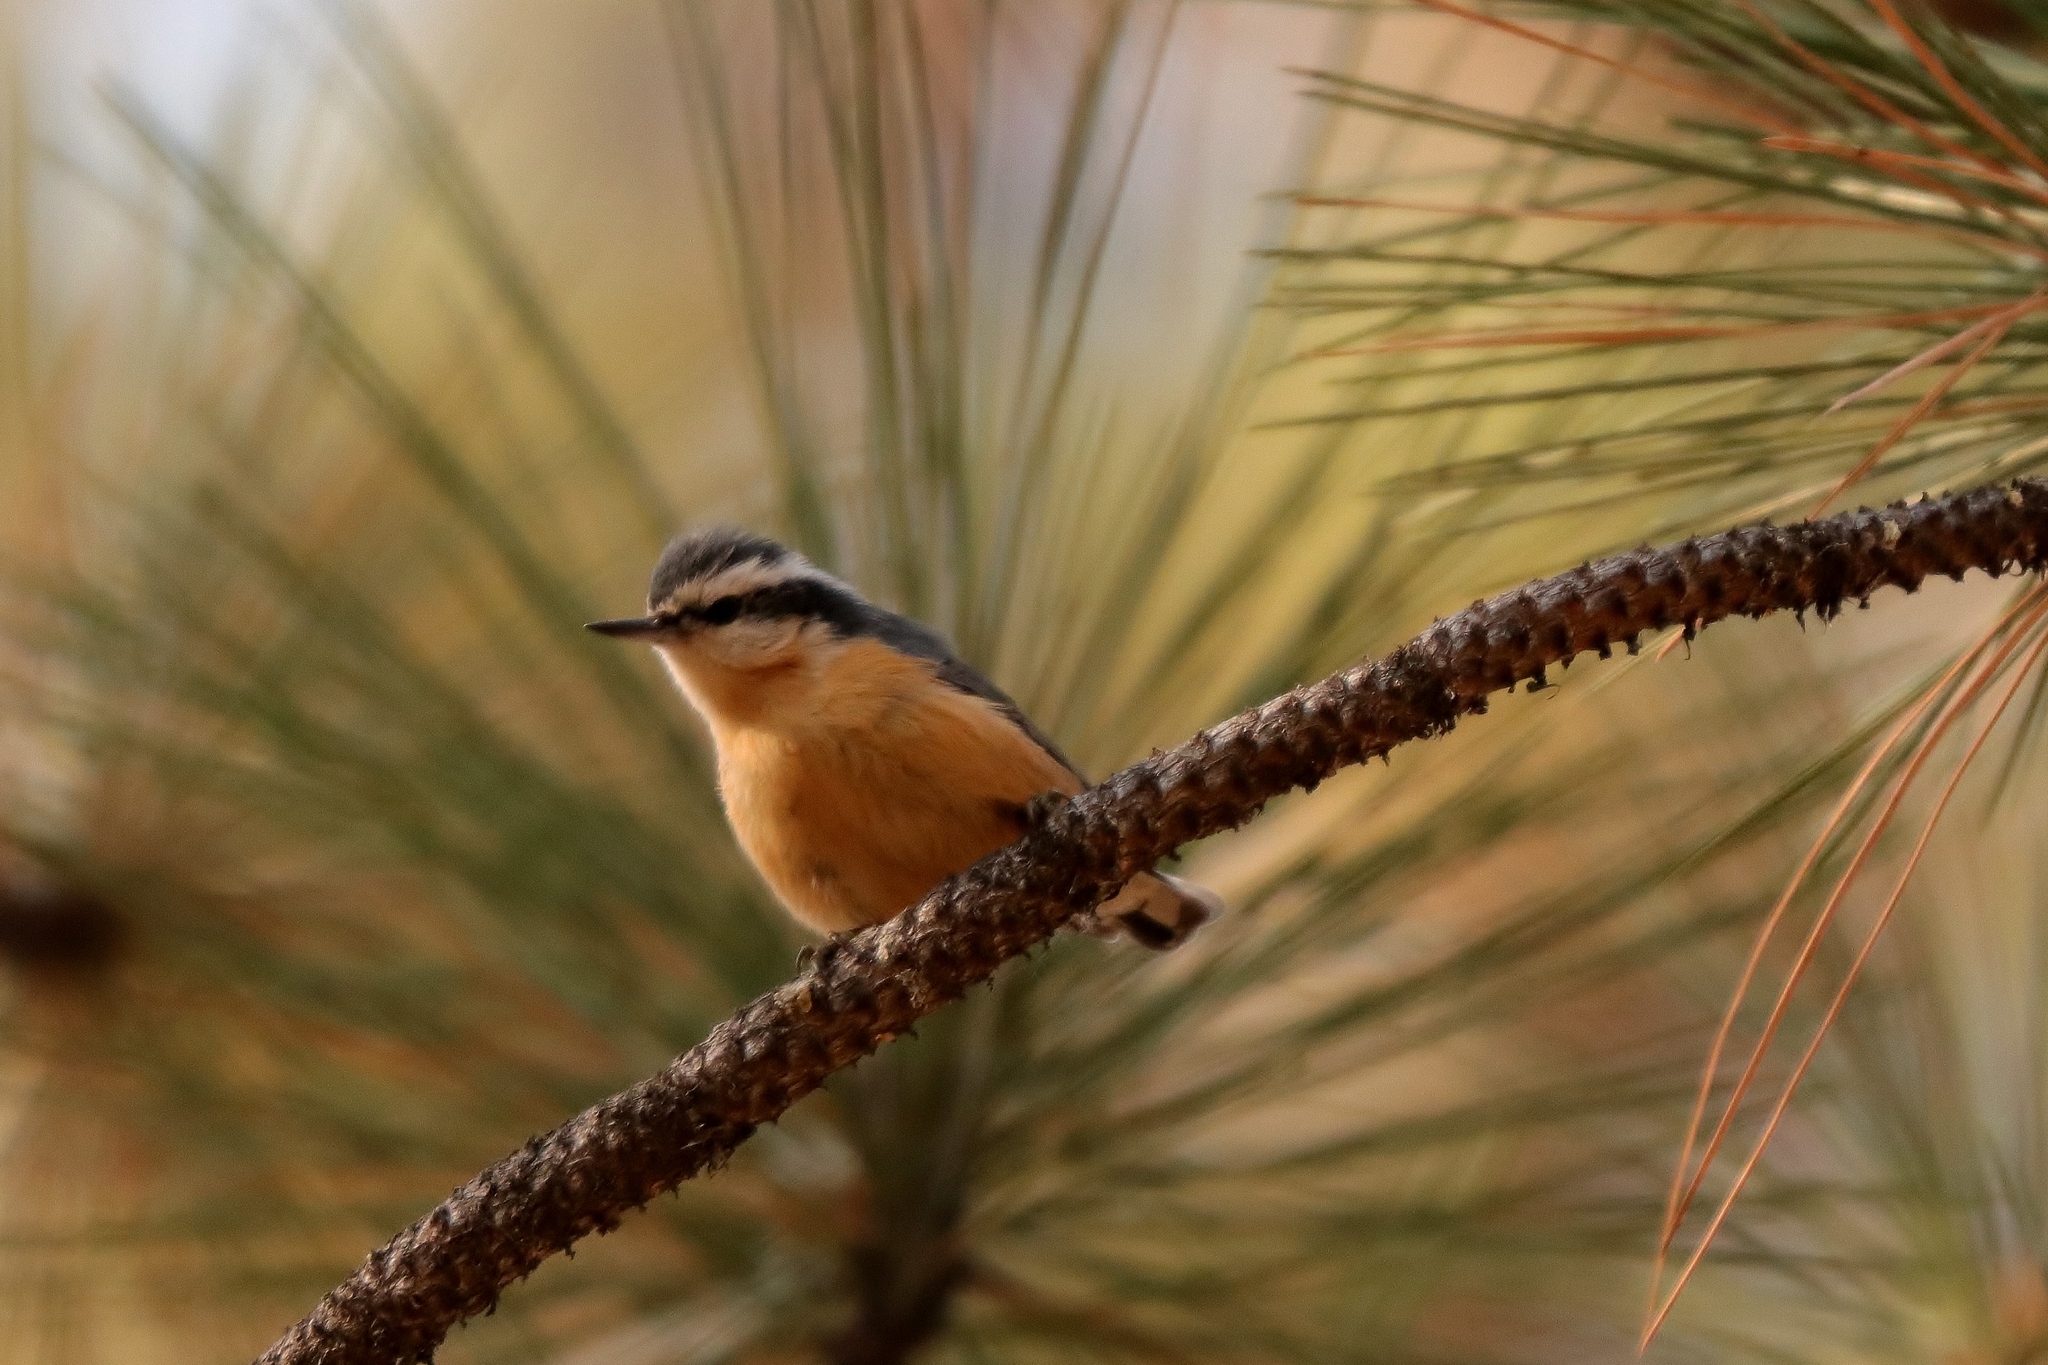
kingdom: Animalia
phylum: Chordata
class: Aves
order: Passeriformes
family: Sittidae
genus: Sitta
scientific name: Sitta canadensis
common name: Red-breasted nuthatch
